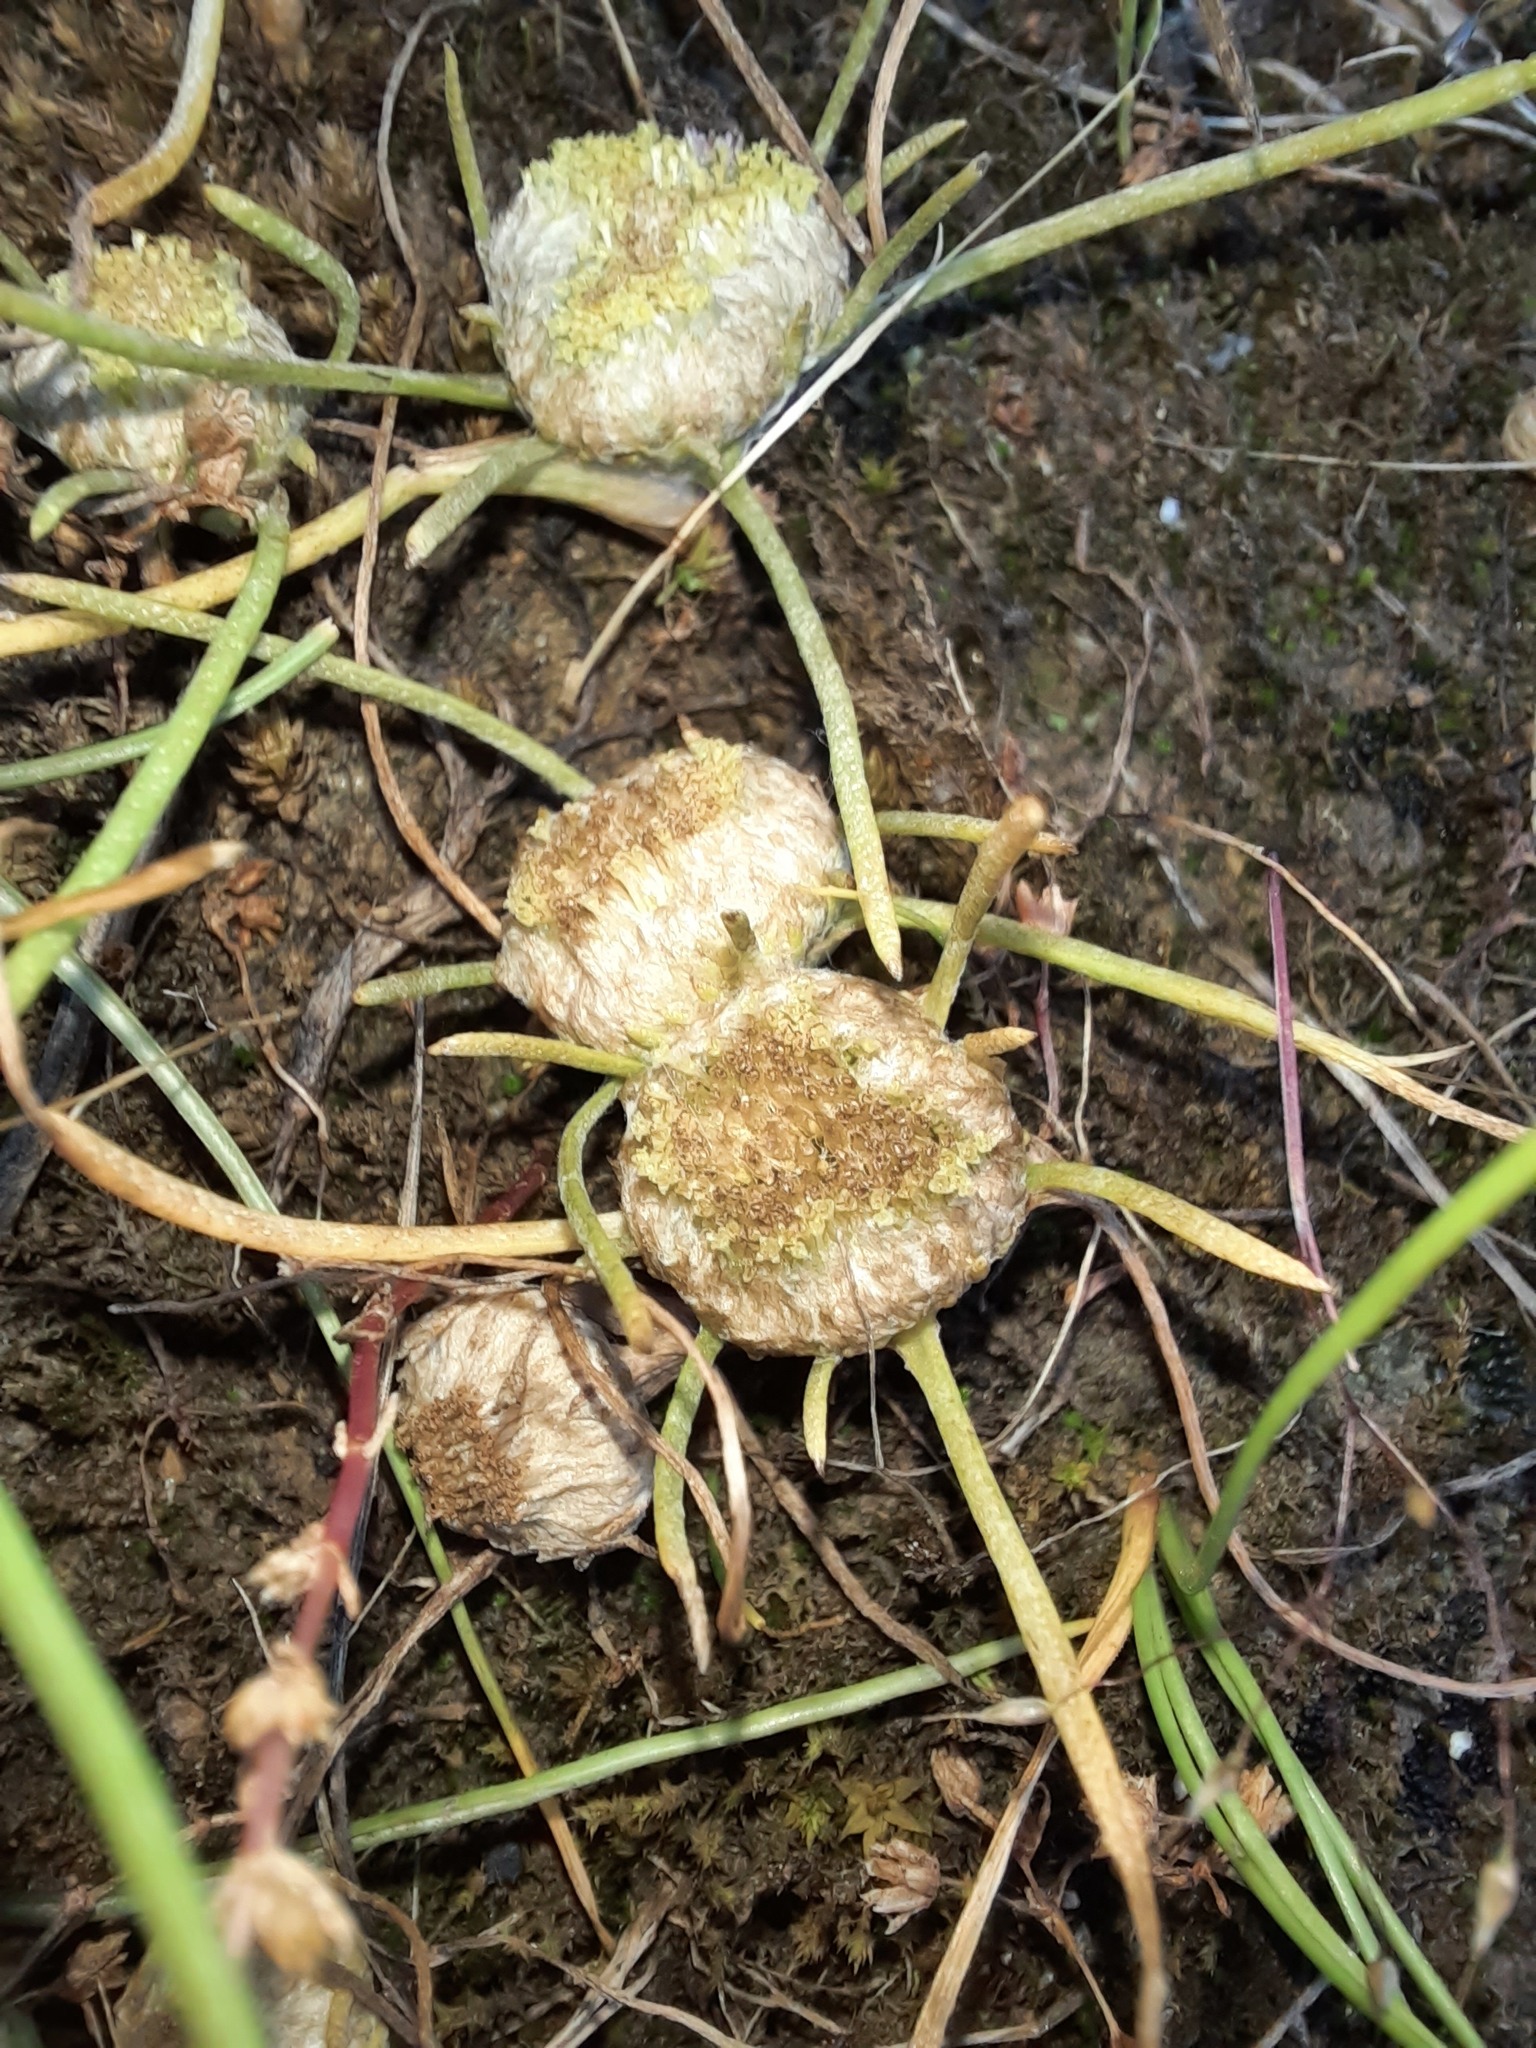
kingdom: Plantae
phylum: Tracheophyta
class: Magnoliopsida
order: Asterales
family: Asteraceae
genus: Myriocephalus
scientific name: Myriocephalus rhizocephalus
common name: Tufted woolly-heads
